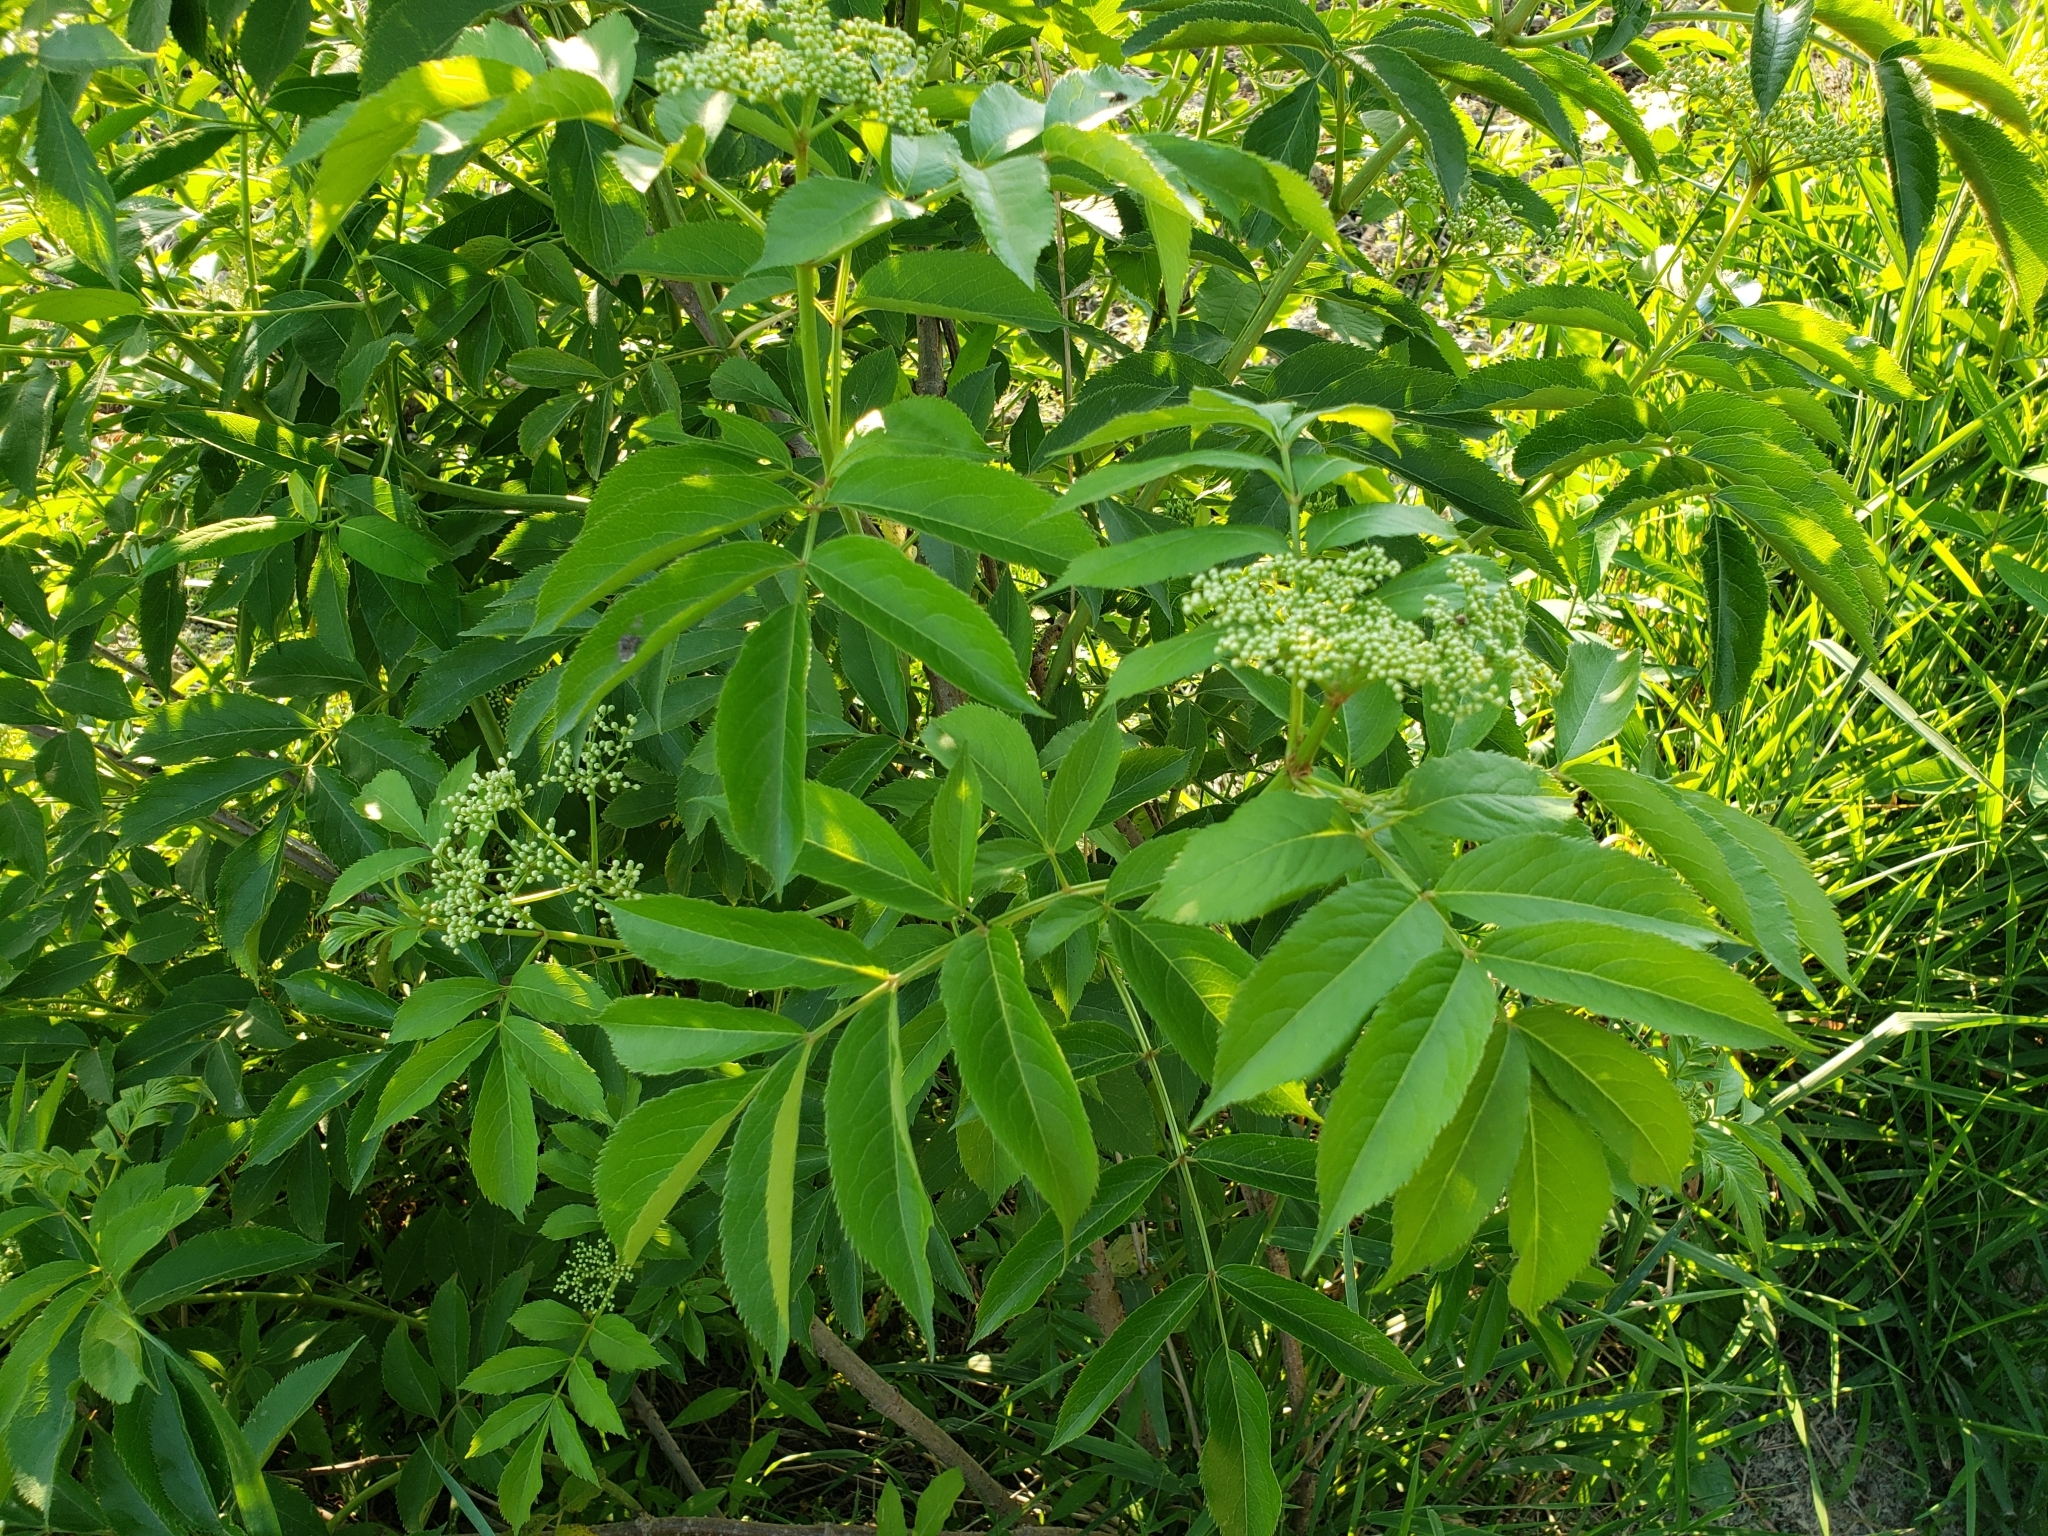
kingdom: Plantae
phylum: Tracheophyta
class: Magnoliopsida
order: Dipsacales
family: Viburnaceae
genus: Sambucus
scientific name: Sambucus canadensis
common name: American elder
